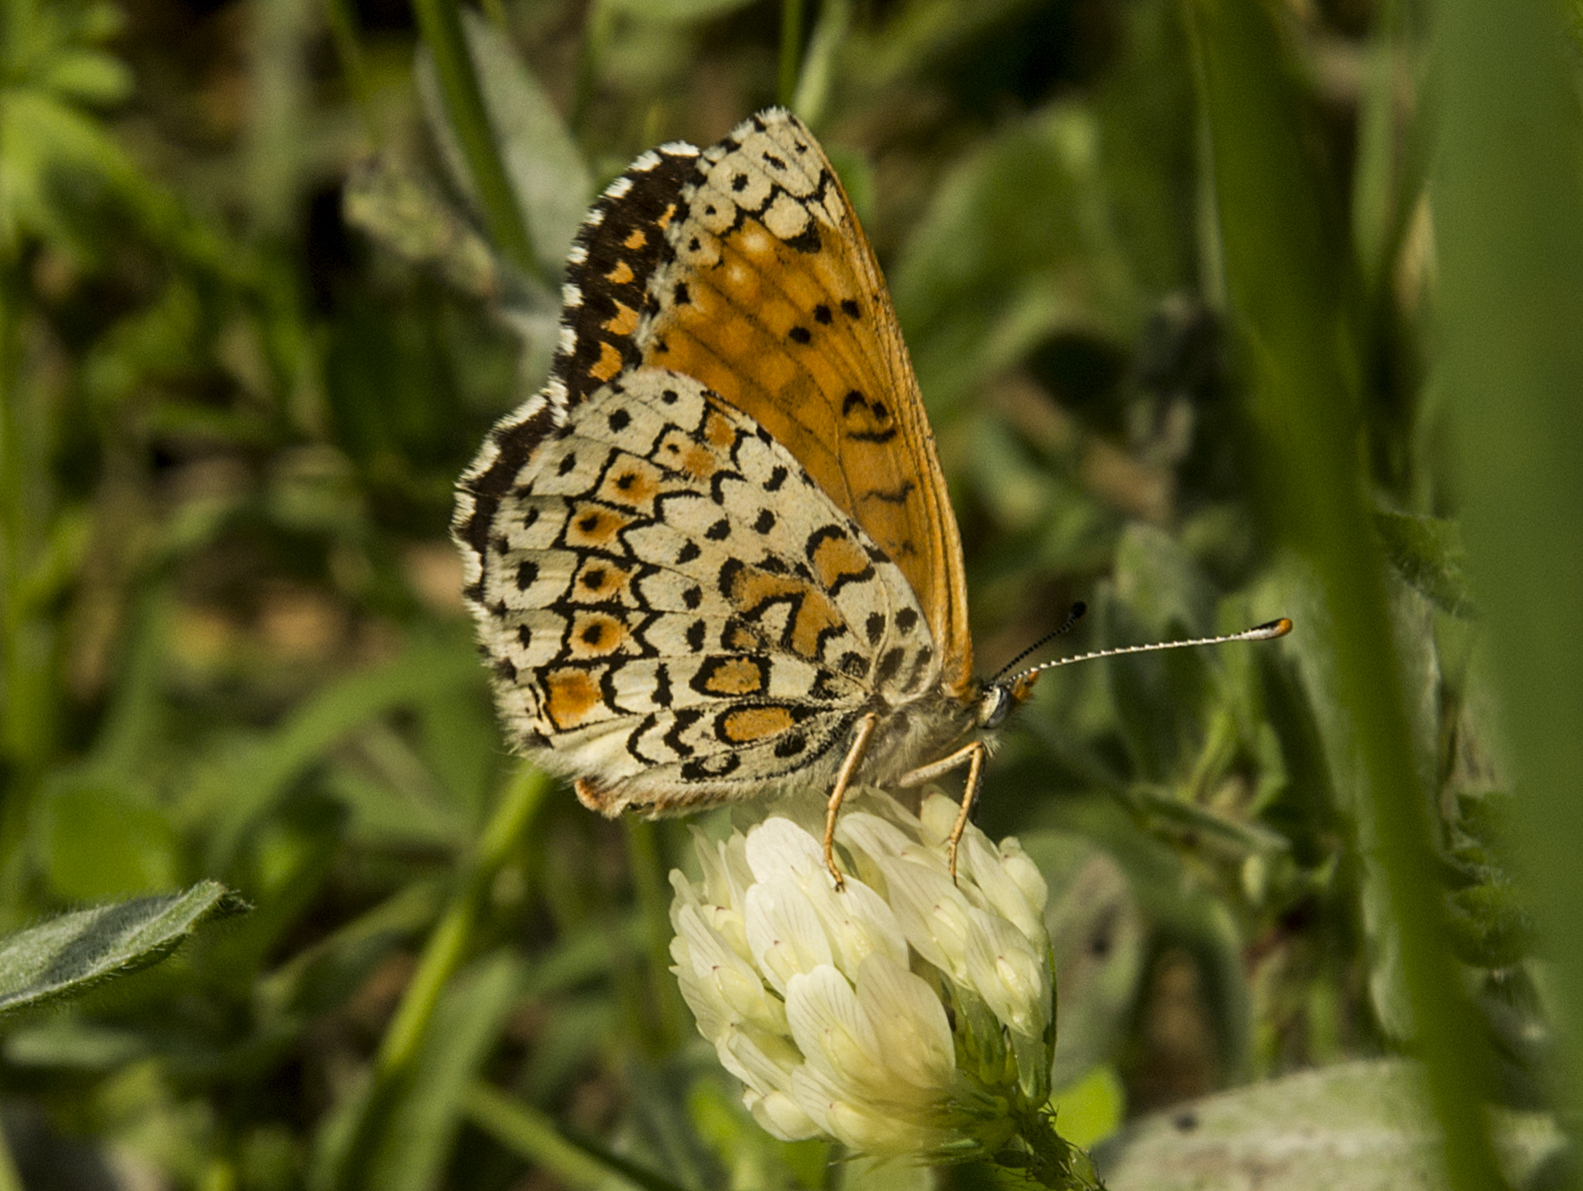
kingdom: Animalia
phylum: Arthropoda
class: Insecta
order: Lepidoptera
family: Nymphalidae
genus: Melitaea
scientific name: Melitaea cinxia
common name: Glanville fritillary
